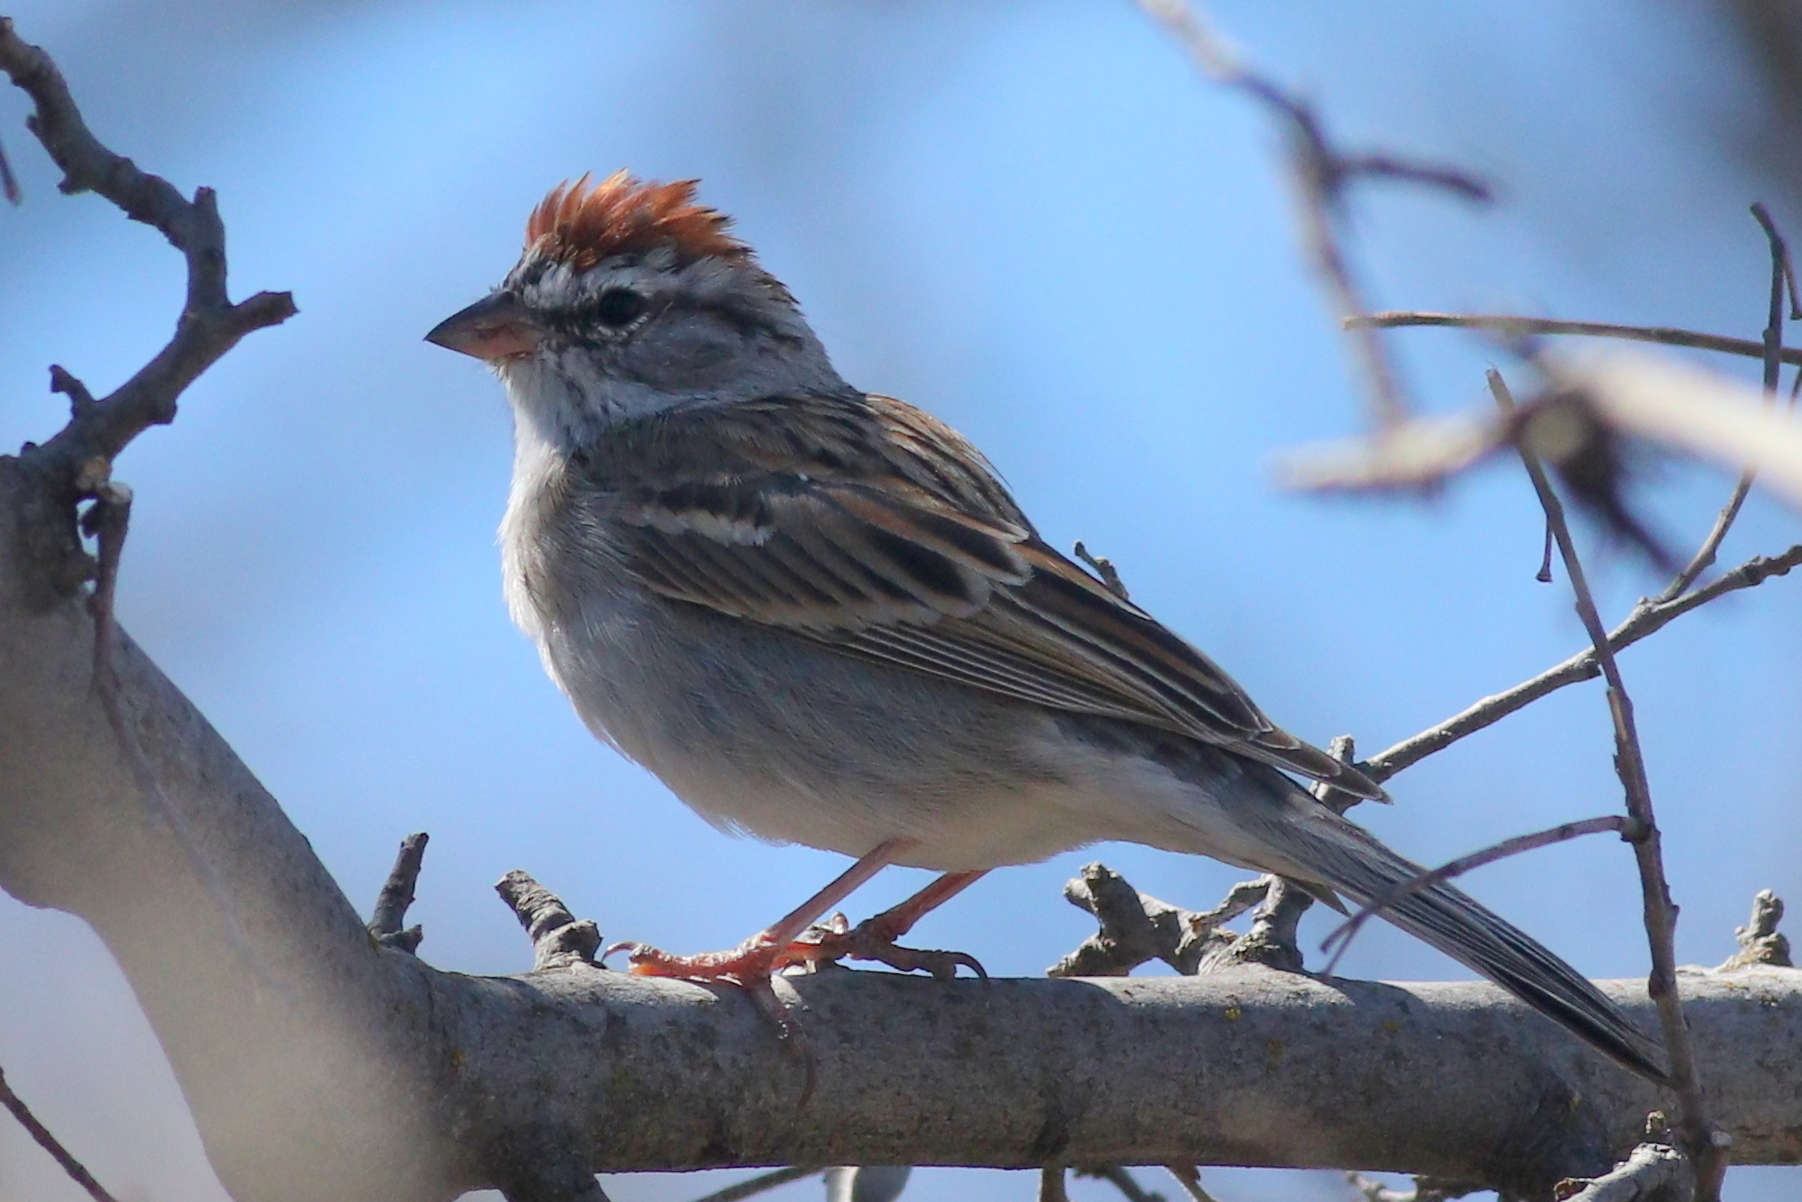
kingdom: Animalia
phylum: Chordata
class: Aves
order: Passeriformes
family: Passerellidae
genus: Spizella
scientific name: Spizella passerina
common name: Chipping sparrow
